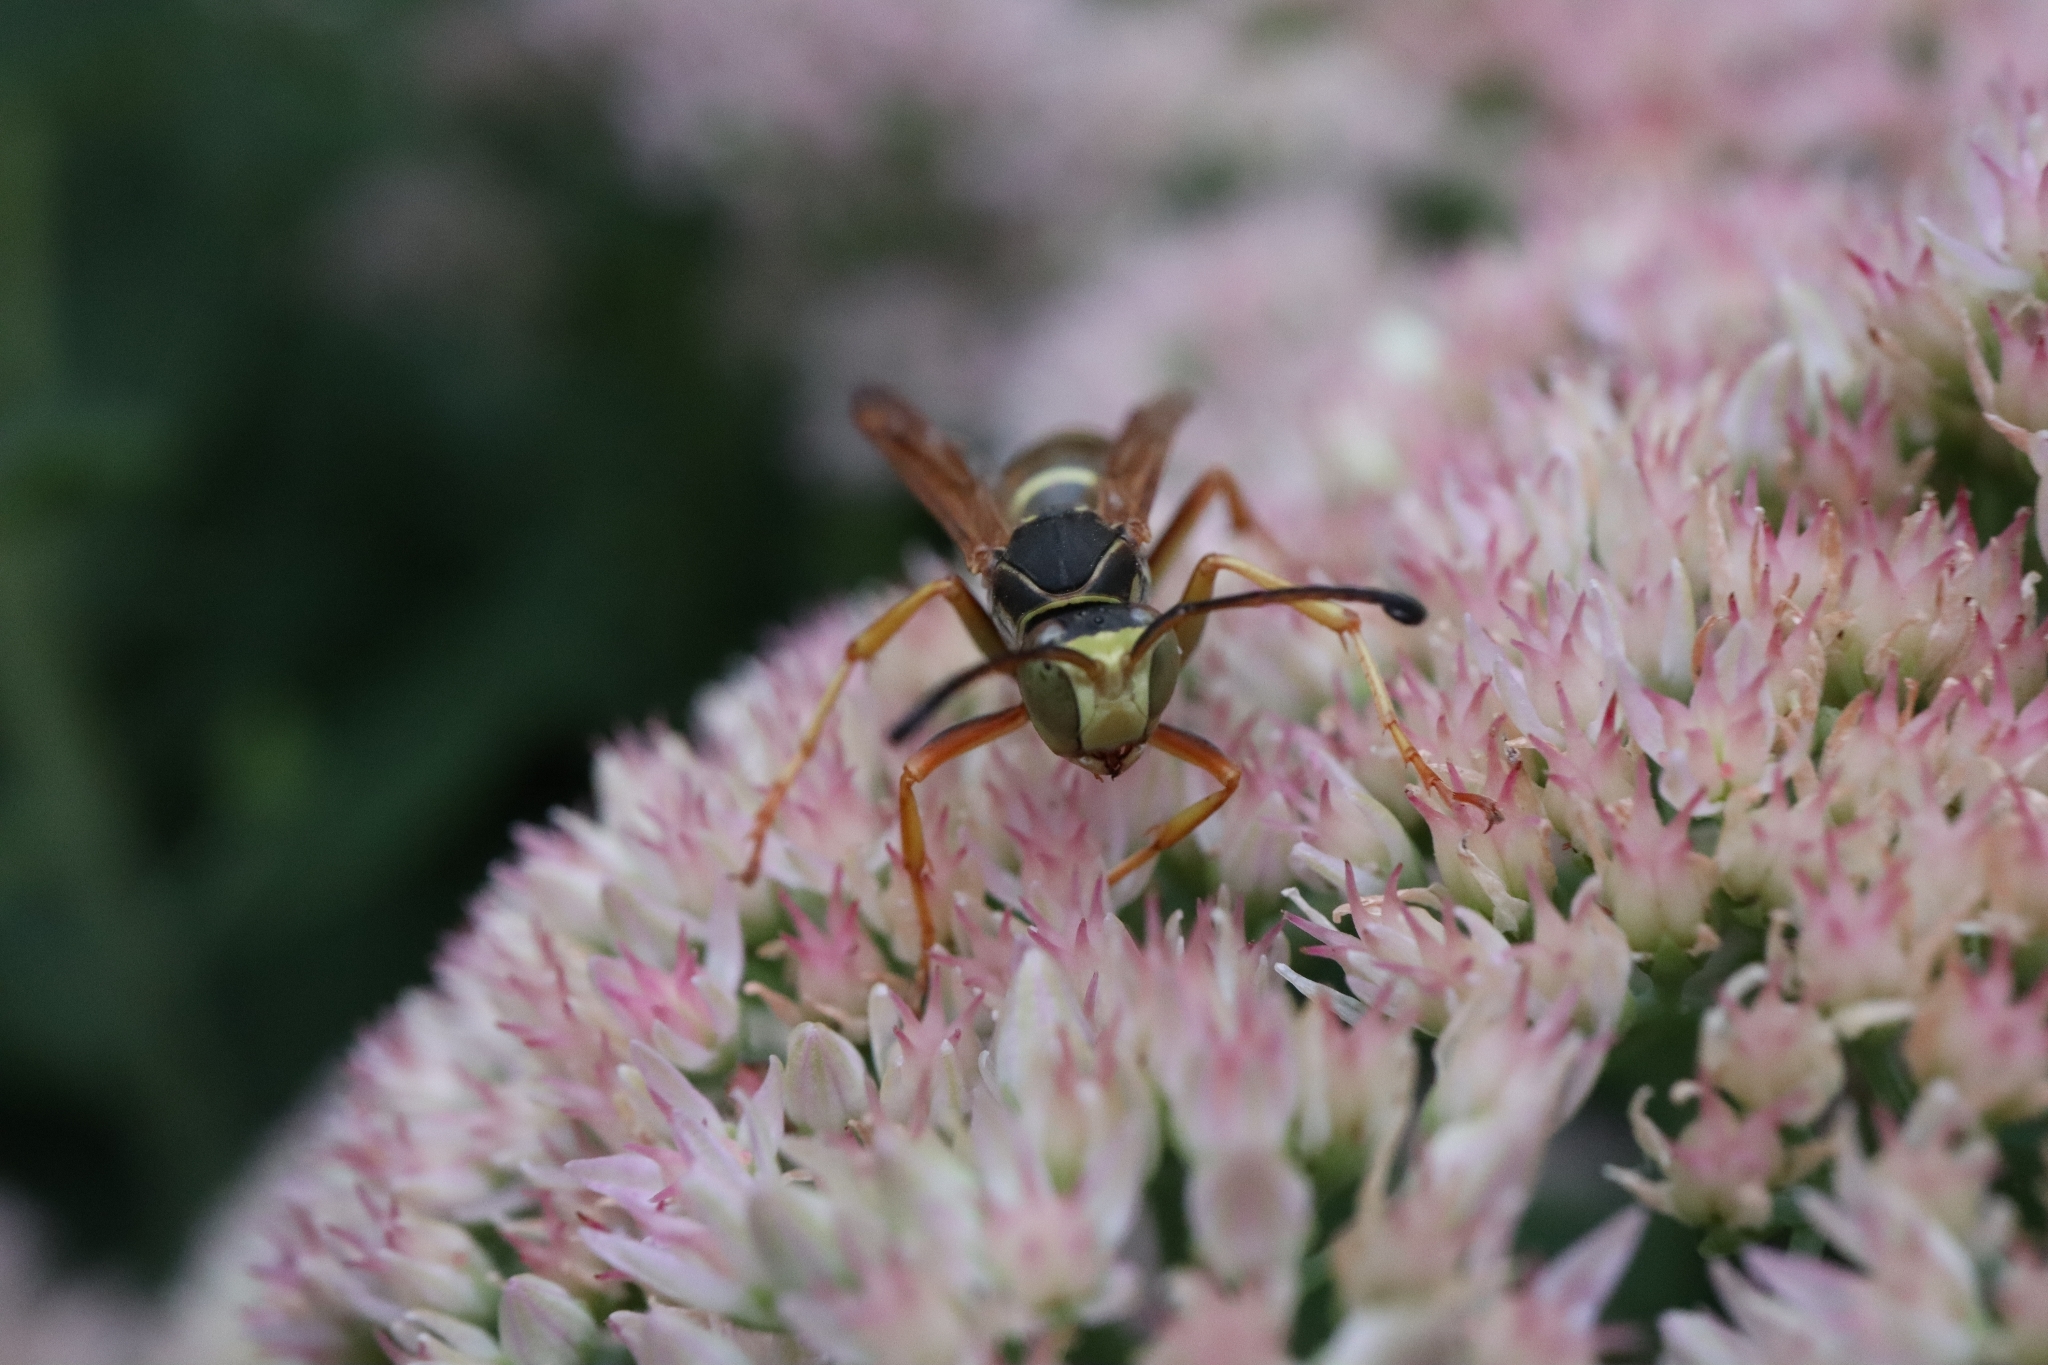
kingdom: Animalia
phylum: Arthropoda
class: Insecta
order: Hymenoptera
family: Eumenidae
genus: Polistes
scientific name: Polistes fuscatus
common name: Dark paper wasp
